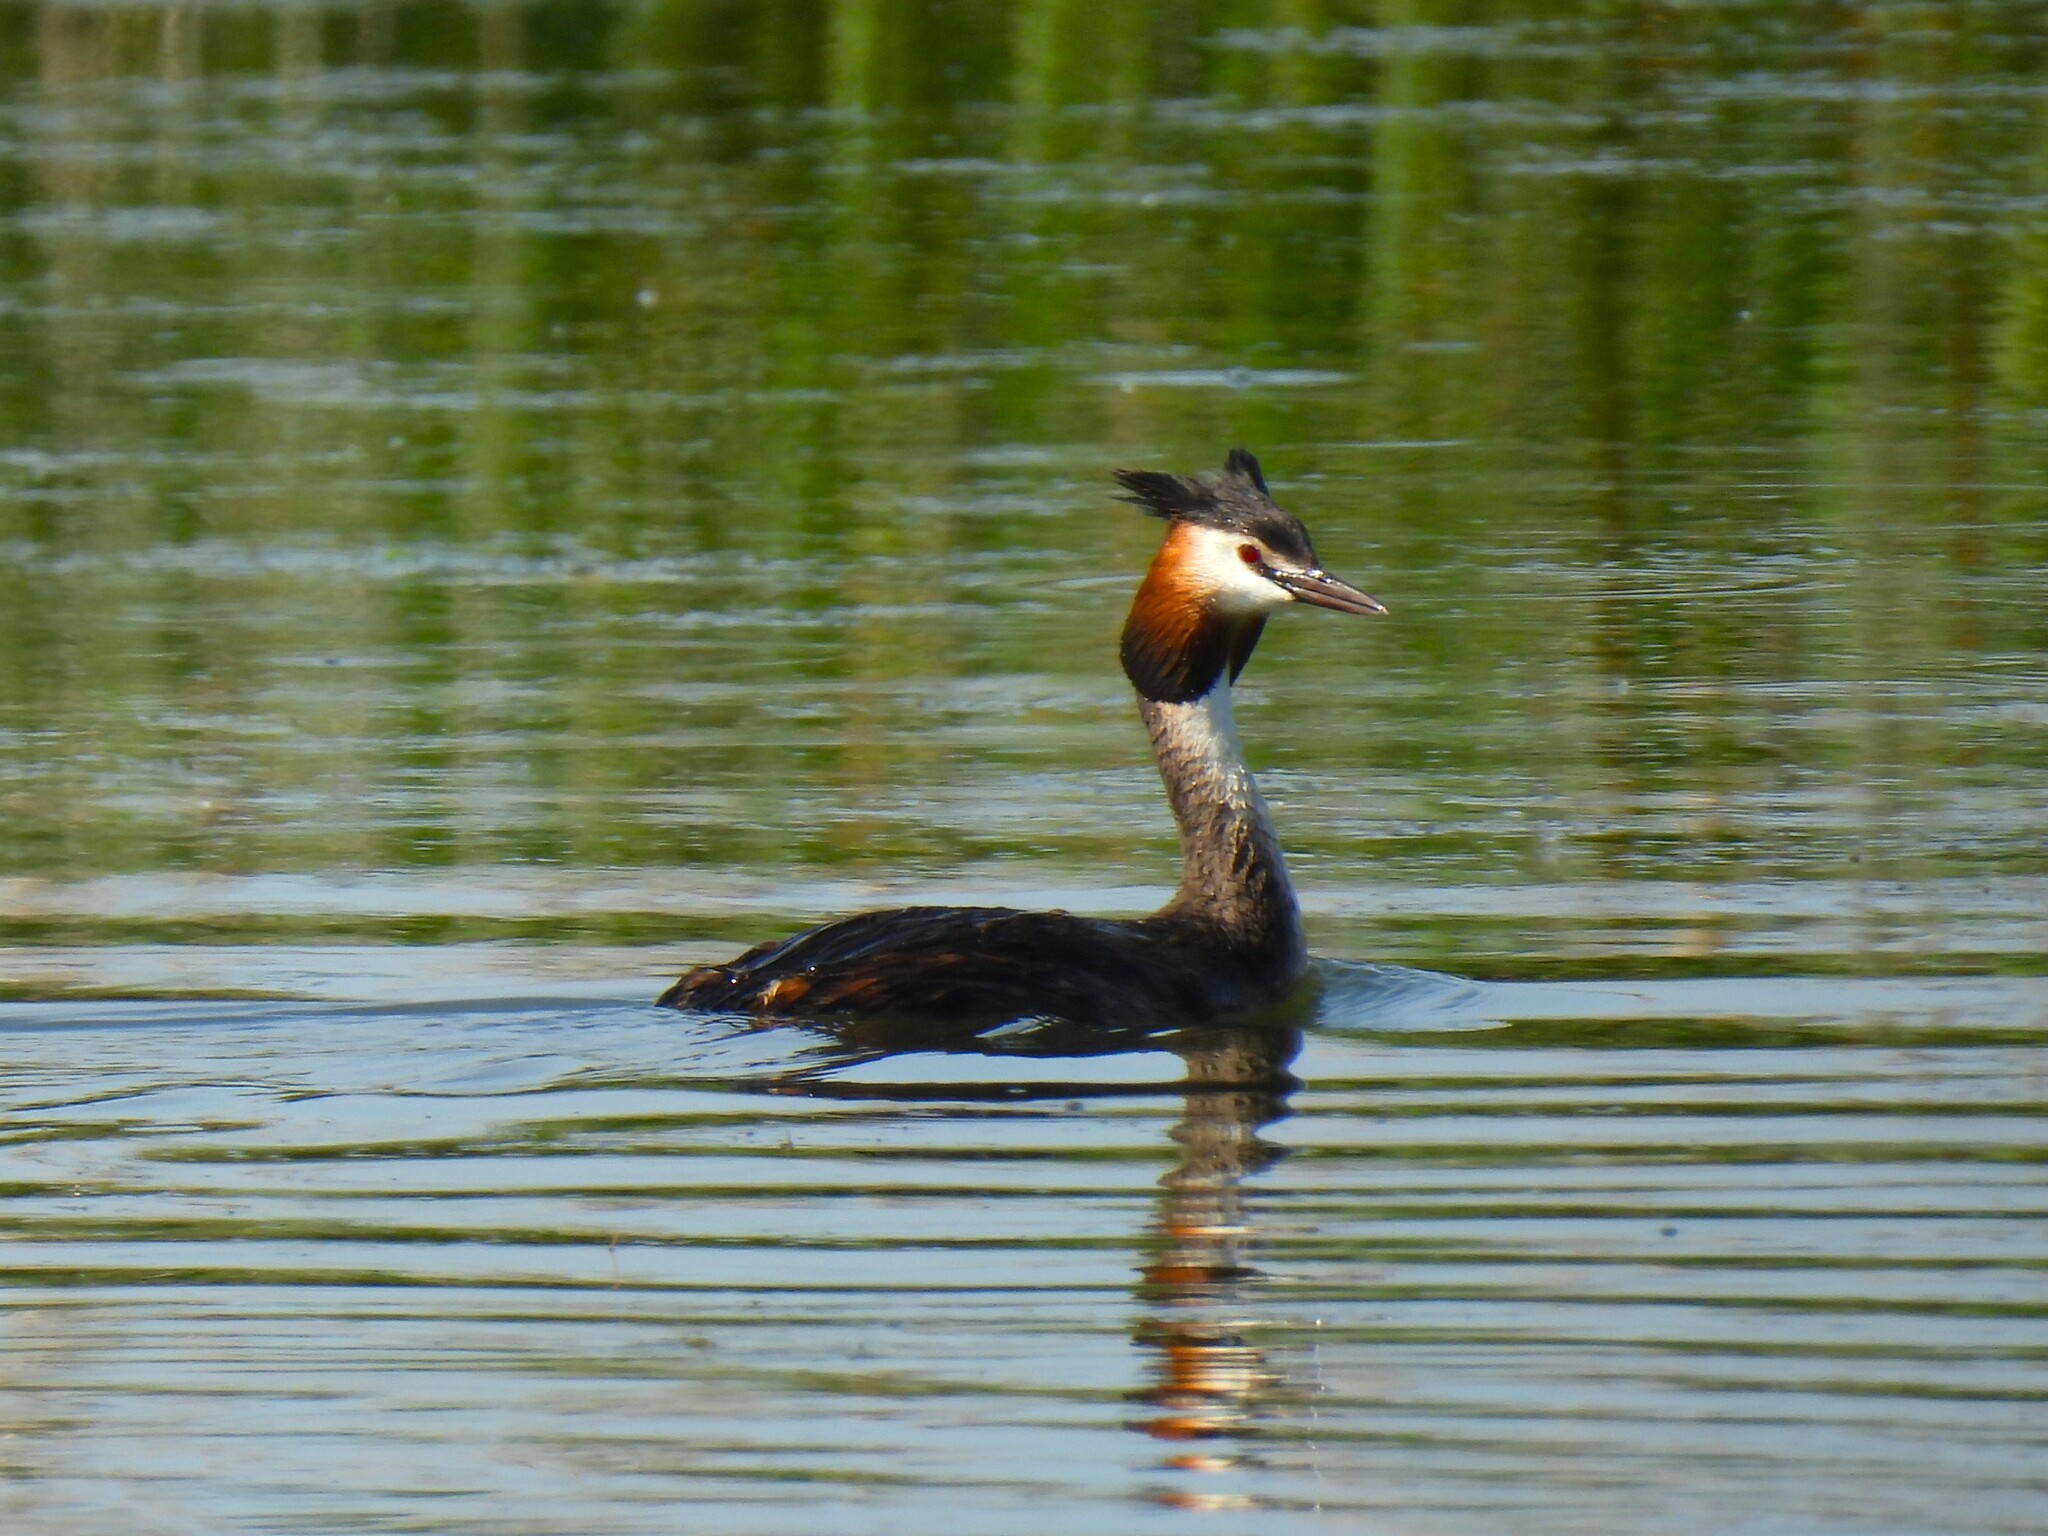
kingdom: Animalia
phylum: Chordata
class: Aves
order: Podicipediformes
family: Podicipedidae
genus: Podiceps
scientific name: Podiceps cristatus
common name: Great crested grebe
